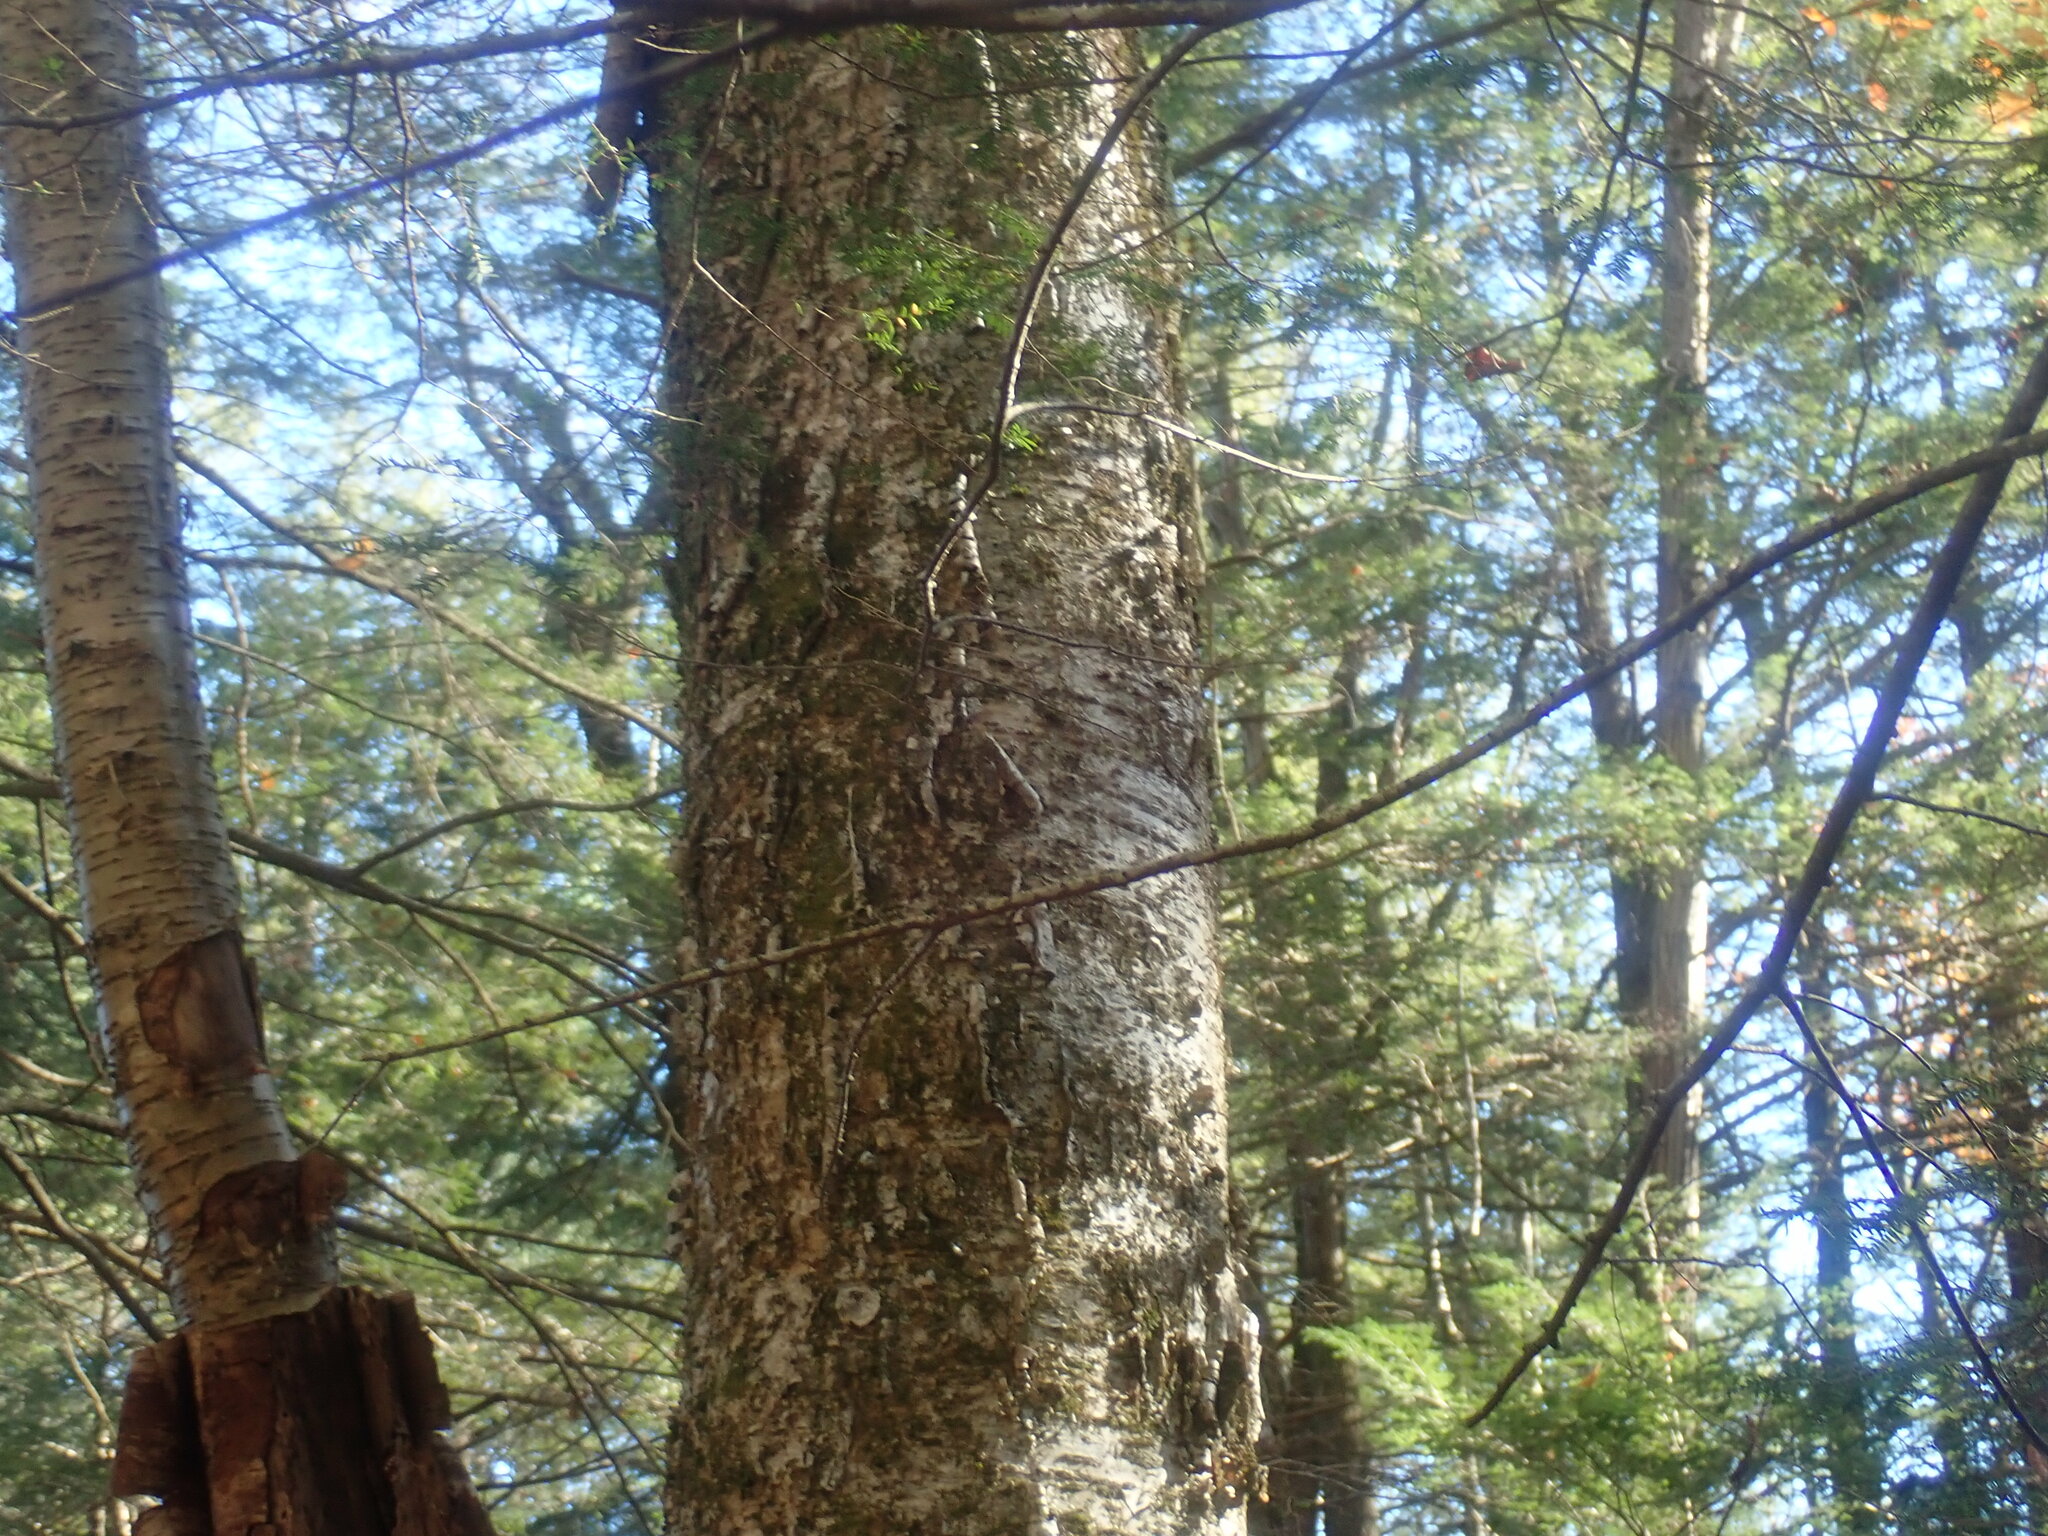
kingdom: Plantae
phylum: Tracheophyta
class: Magnoliopsida
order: Fagales
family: Betulaceae
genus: Betula
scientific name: Betula alleghaniensis
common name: Yellow birch
